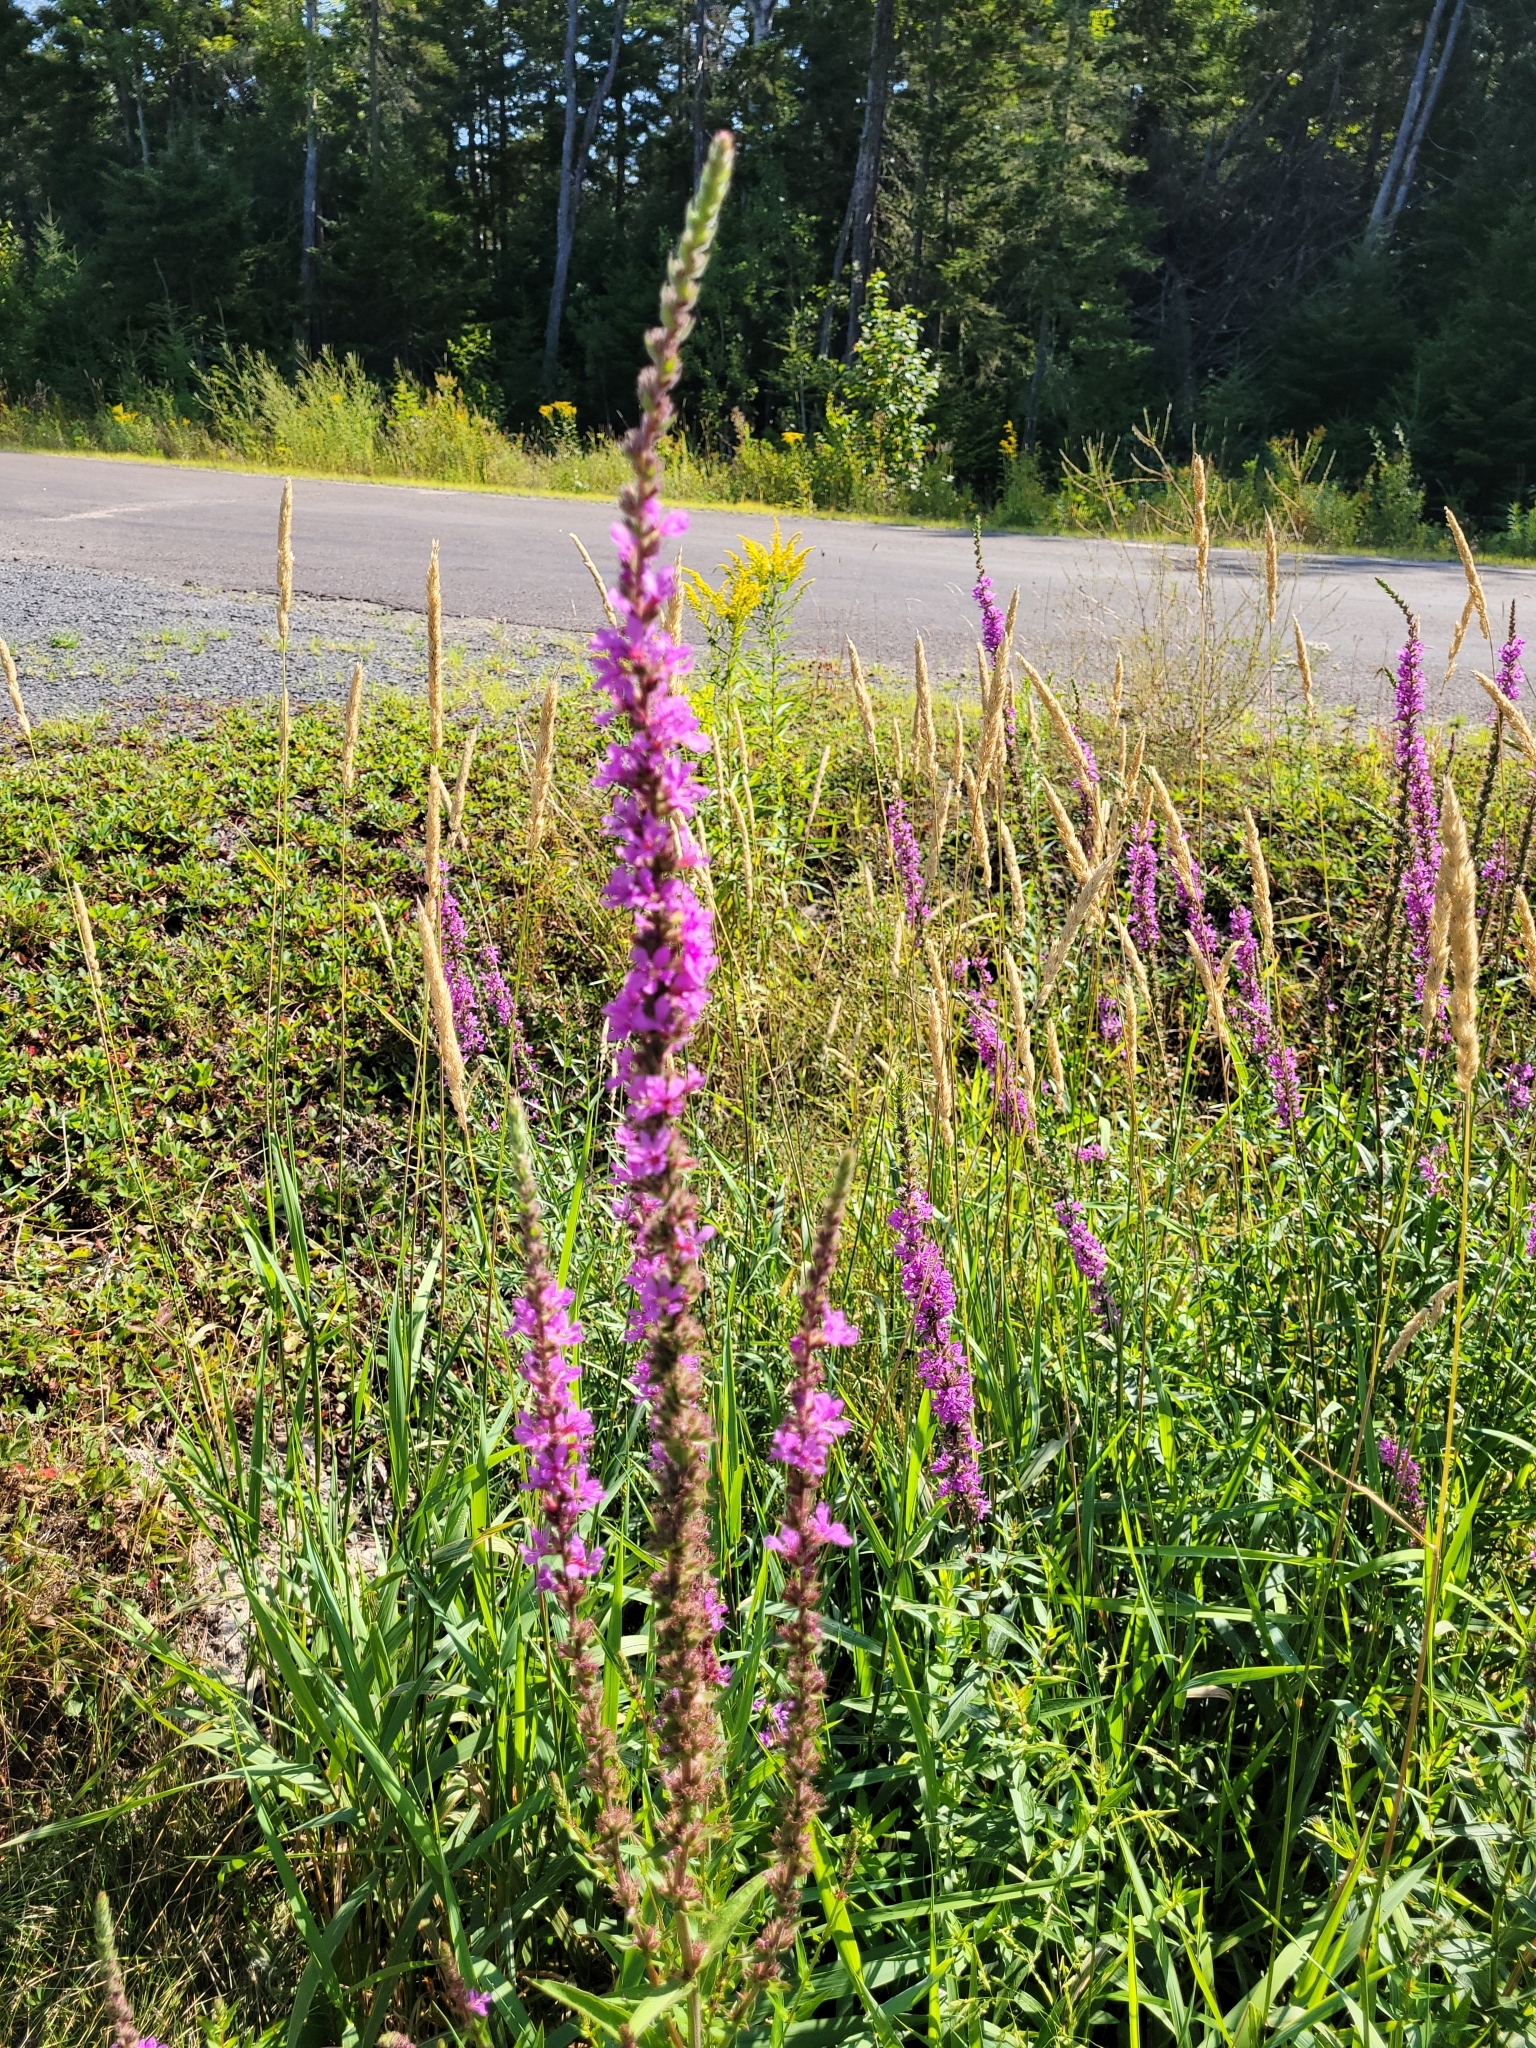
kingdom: Plantae
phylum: Tracheophyta
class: Magnoliopsida
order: Myrtales
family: Lythraceae
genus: Lythrum
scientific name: Lythrum salicaria
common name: Purple loosestrife
